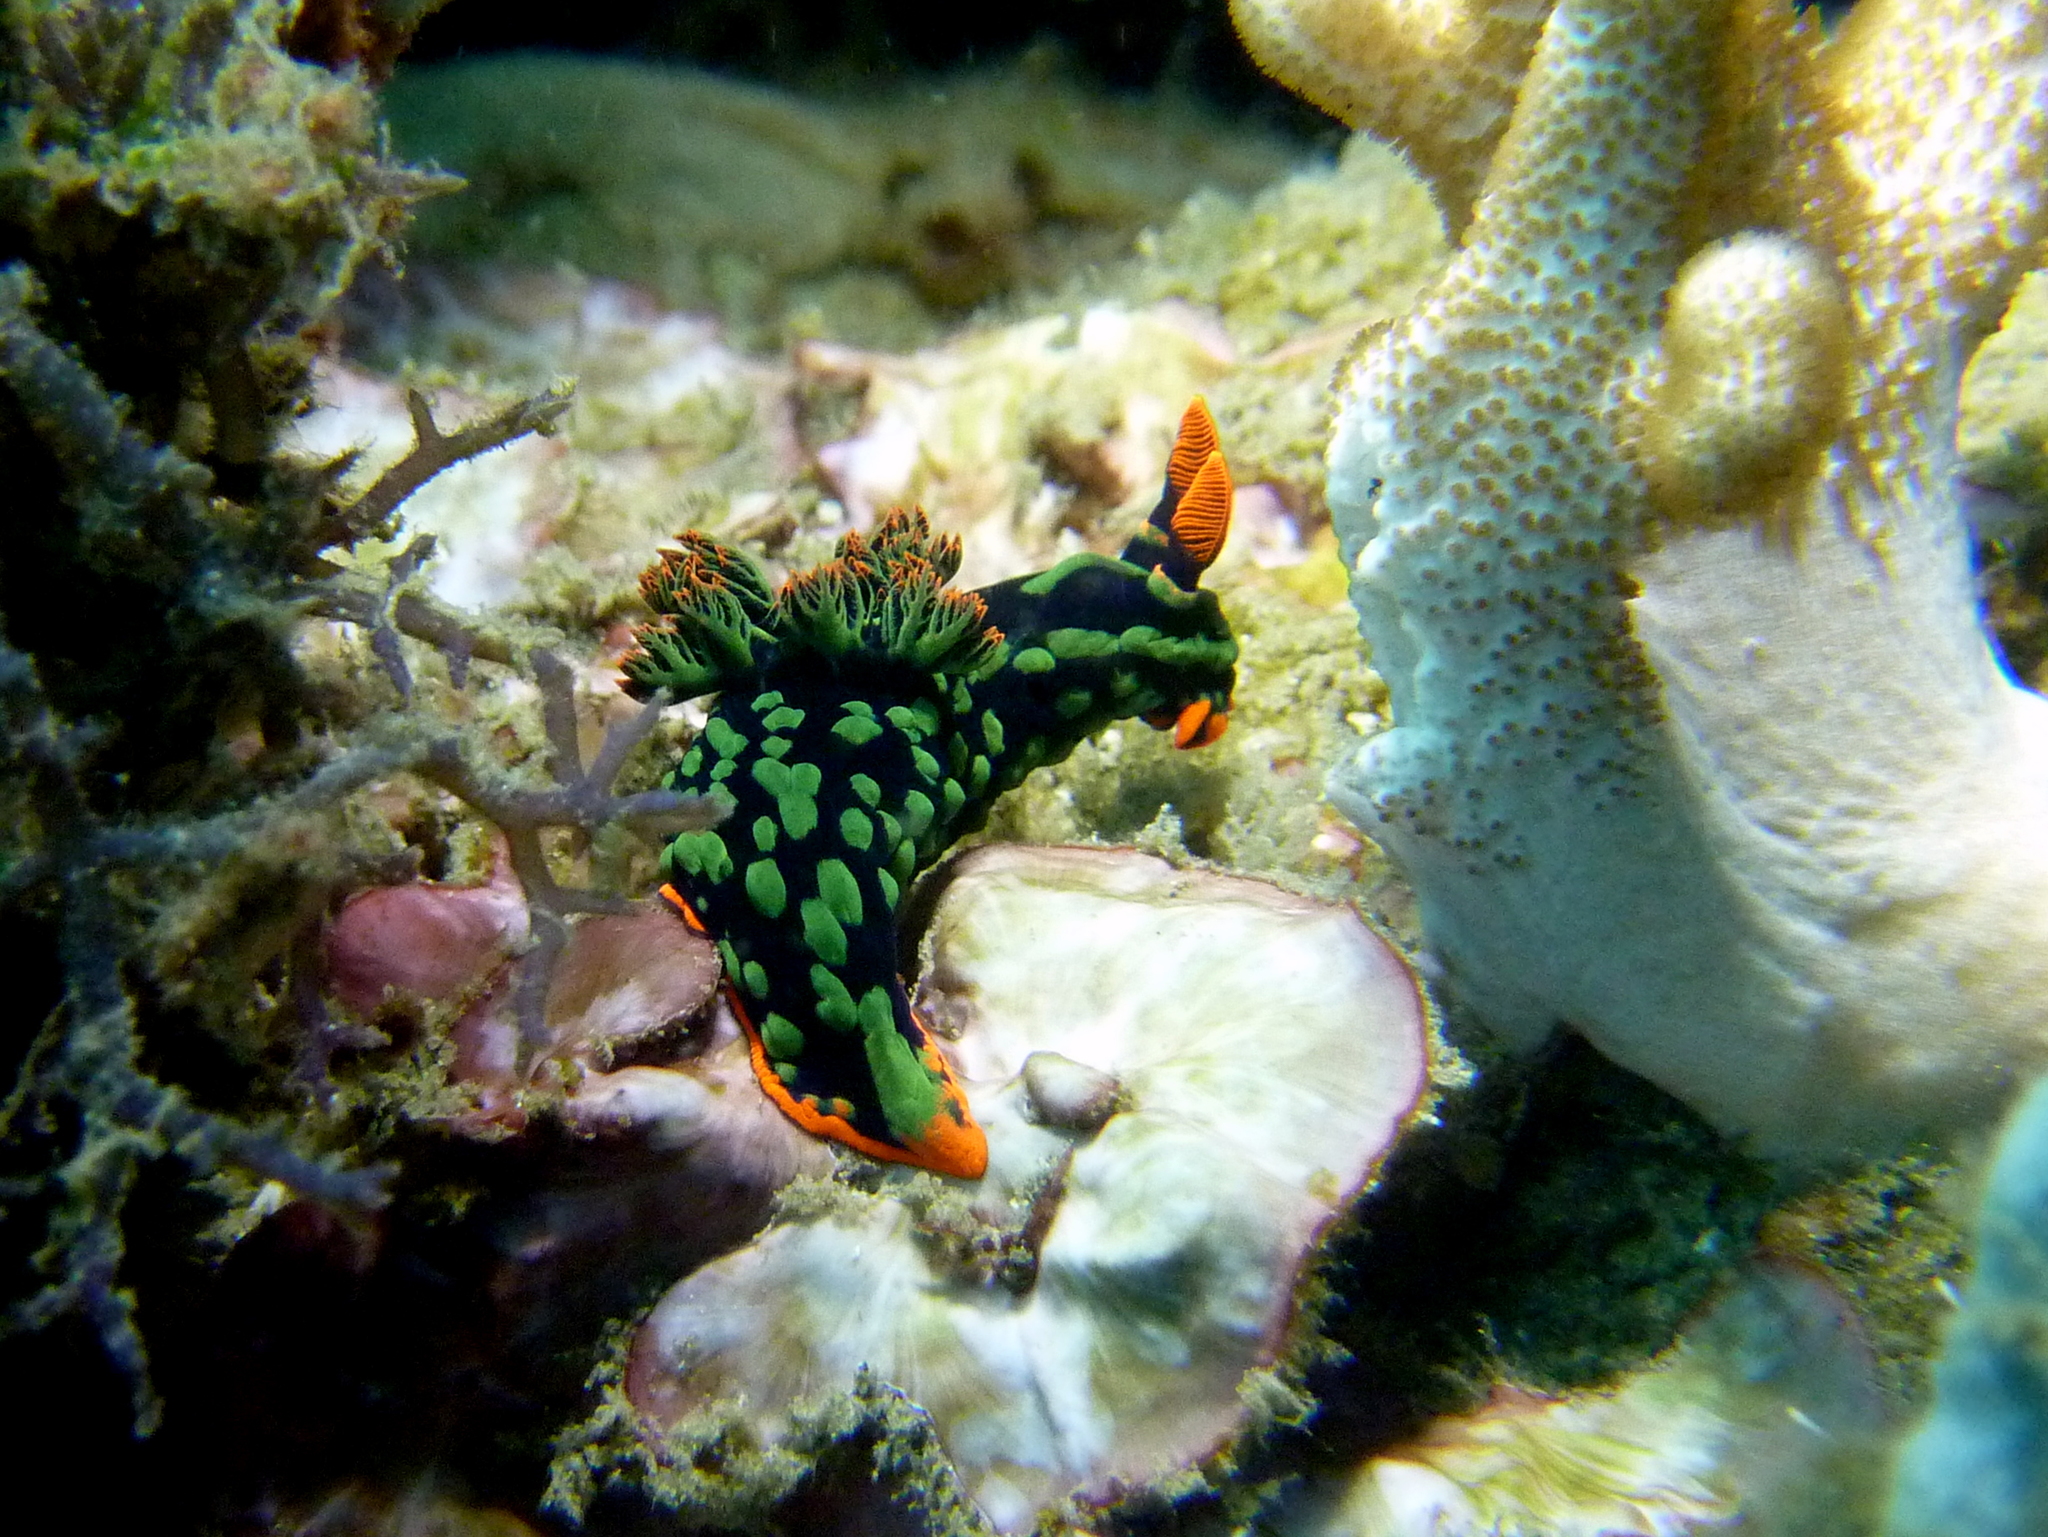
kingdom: Animalia
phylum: Mollusca
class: Gastropoda
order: Nudibranchia
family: Polyceridae
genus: Nembrotha
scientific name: Nembrotha kubaryana
